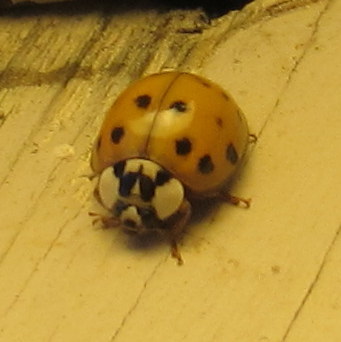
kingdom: Animalia
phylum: Arthropoda
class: Insecta
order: Coleoptera
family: Coccinellidae
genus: Harmonia
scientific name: Harmonia axyridis
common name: Harlequin ladybird
